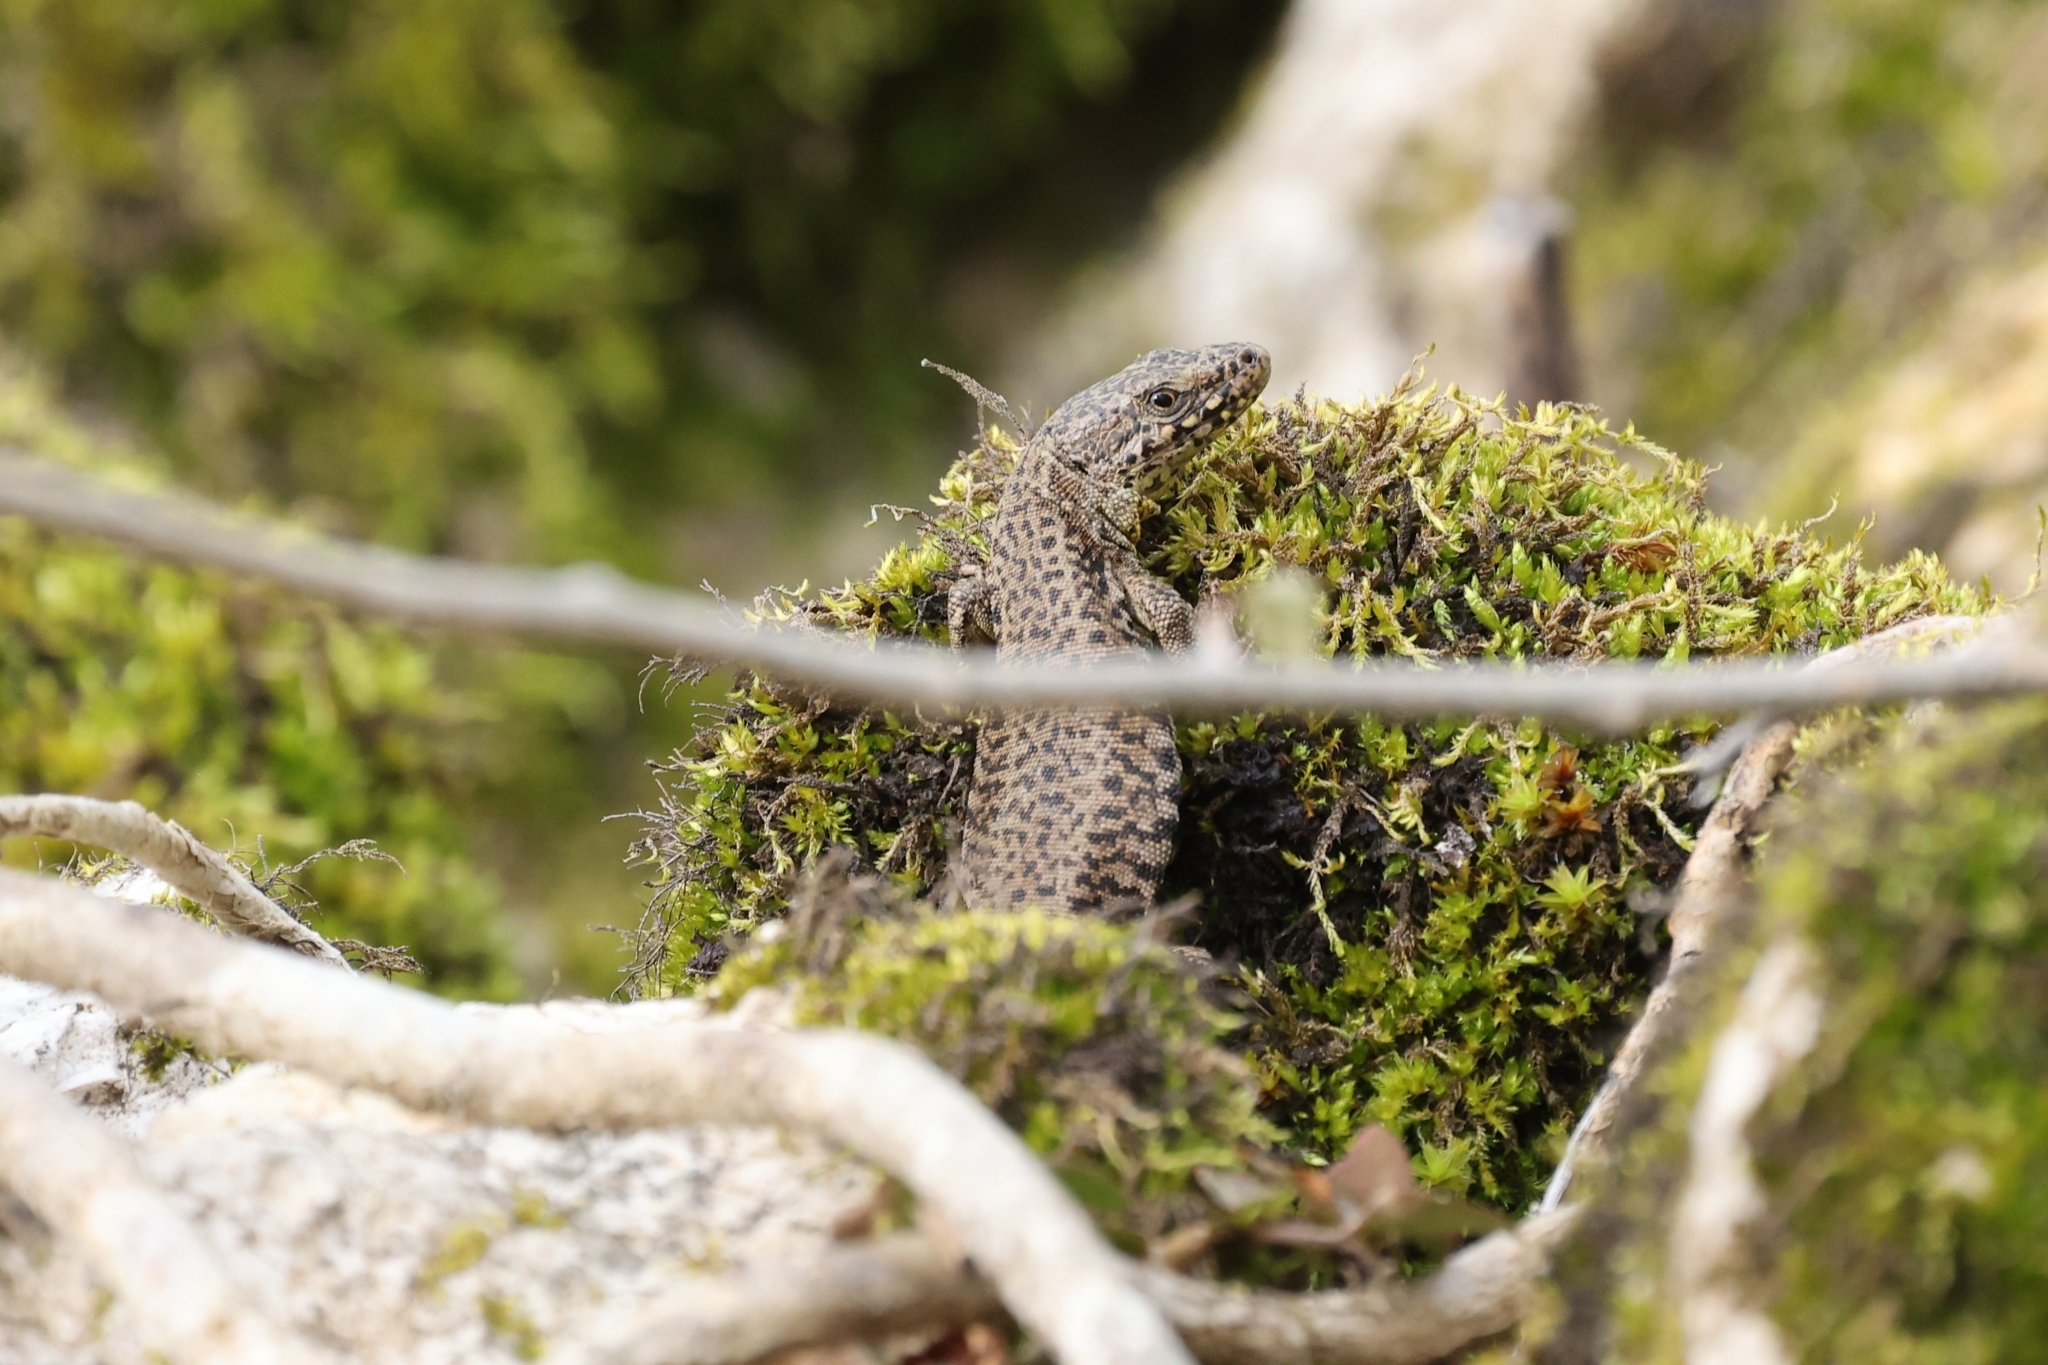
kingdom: Animalia
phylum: Chordata
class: Squamata
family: Lacertidae
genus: Podarcis
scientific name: Podarcis muralis
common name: Common wall lizard
